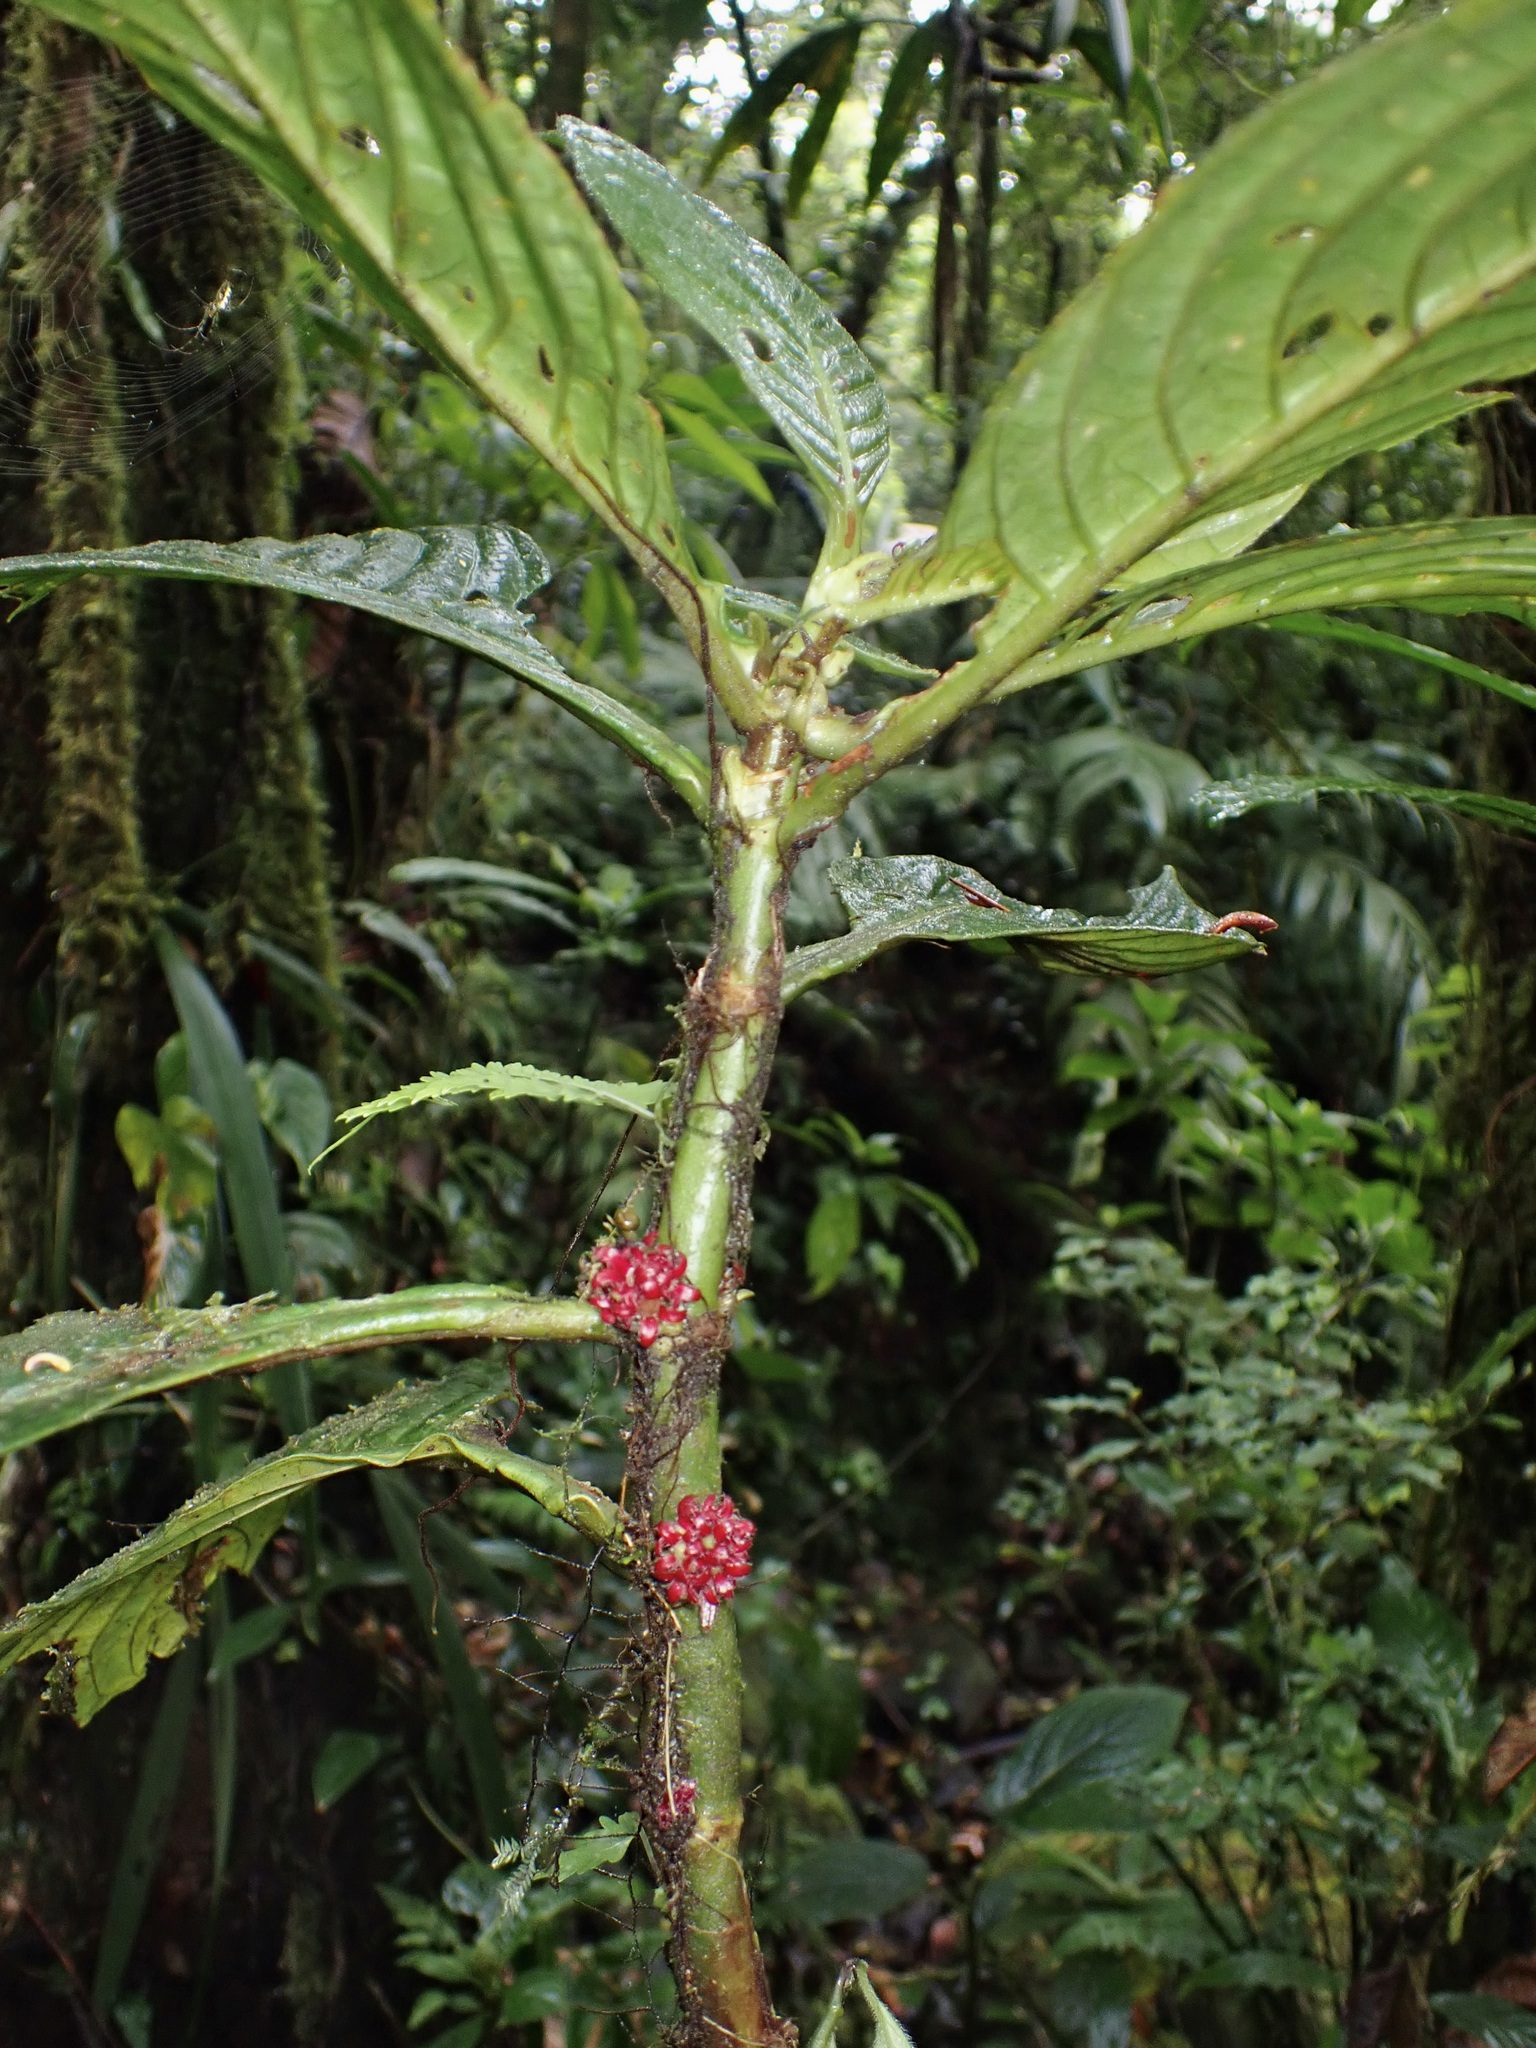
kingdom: Plantae
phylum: Tracheophyta
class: Magnoliopsida
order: Gentianales
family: Rubiaceae
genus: Hoffmannia
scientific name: Hoffmannia congesta
